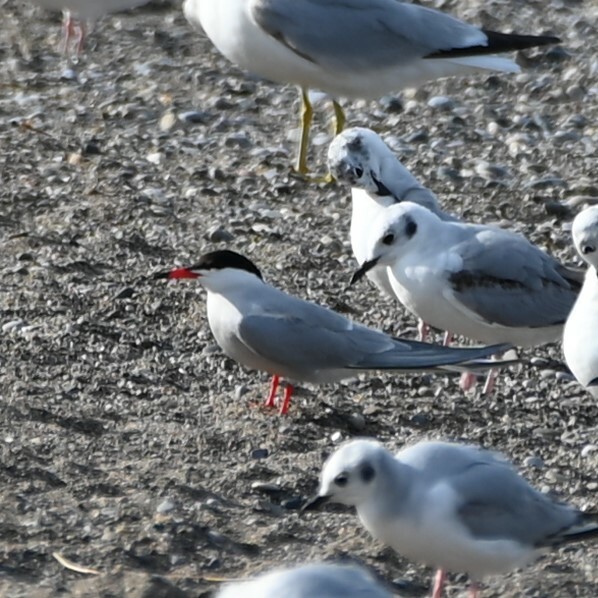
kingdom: Animalia
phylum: Chordata
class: Aves
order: Charadriiformes
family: Laridae
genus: Sterna
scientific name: Sterna hirundo
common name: Common tern
